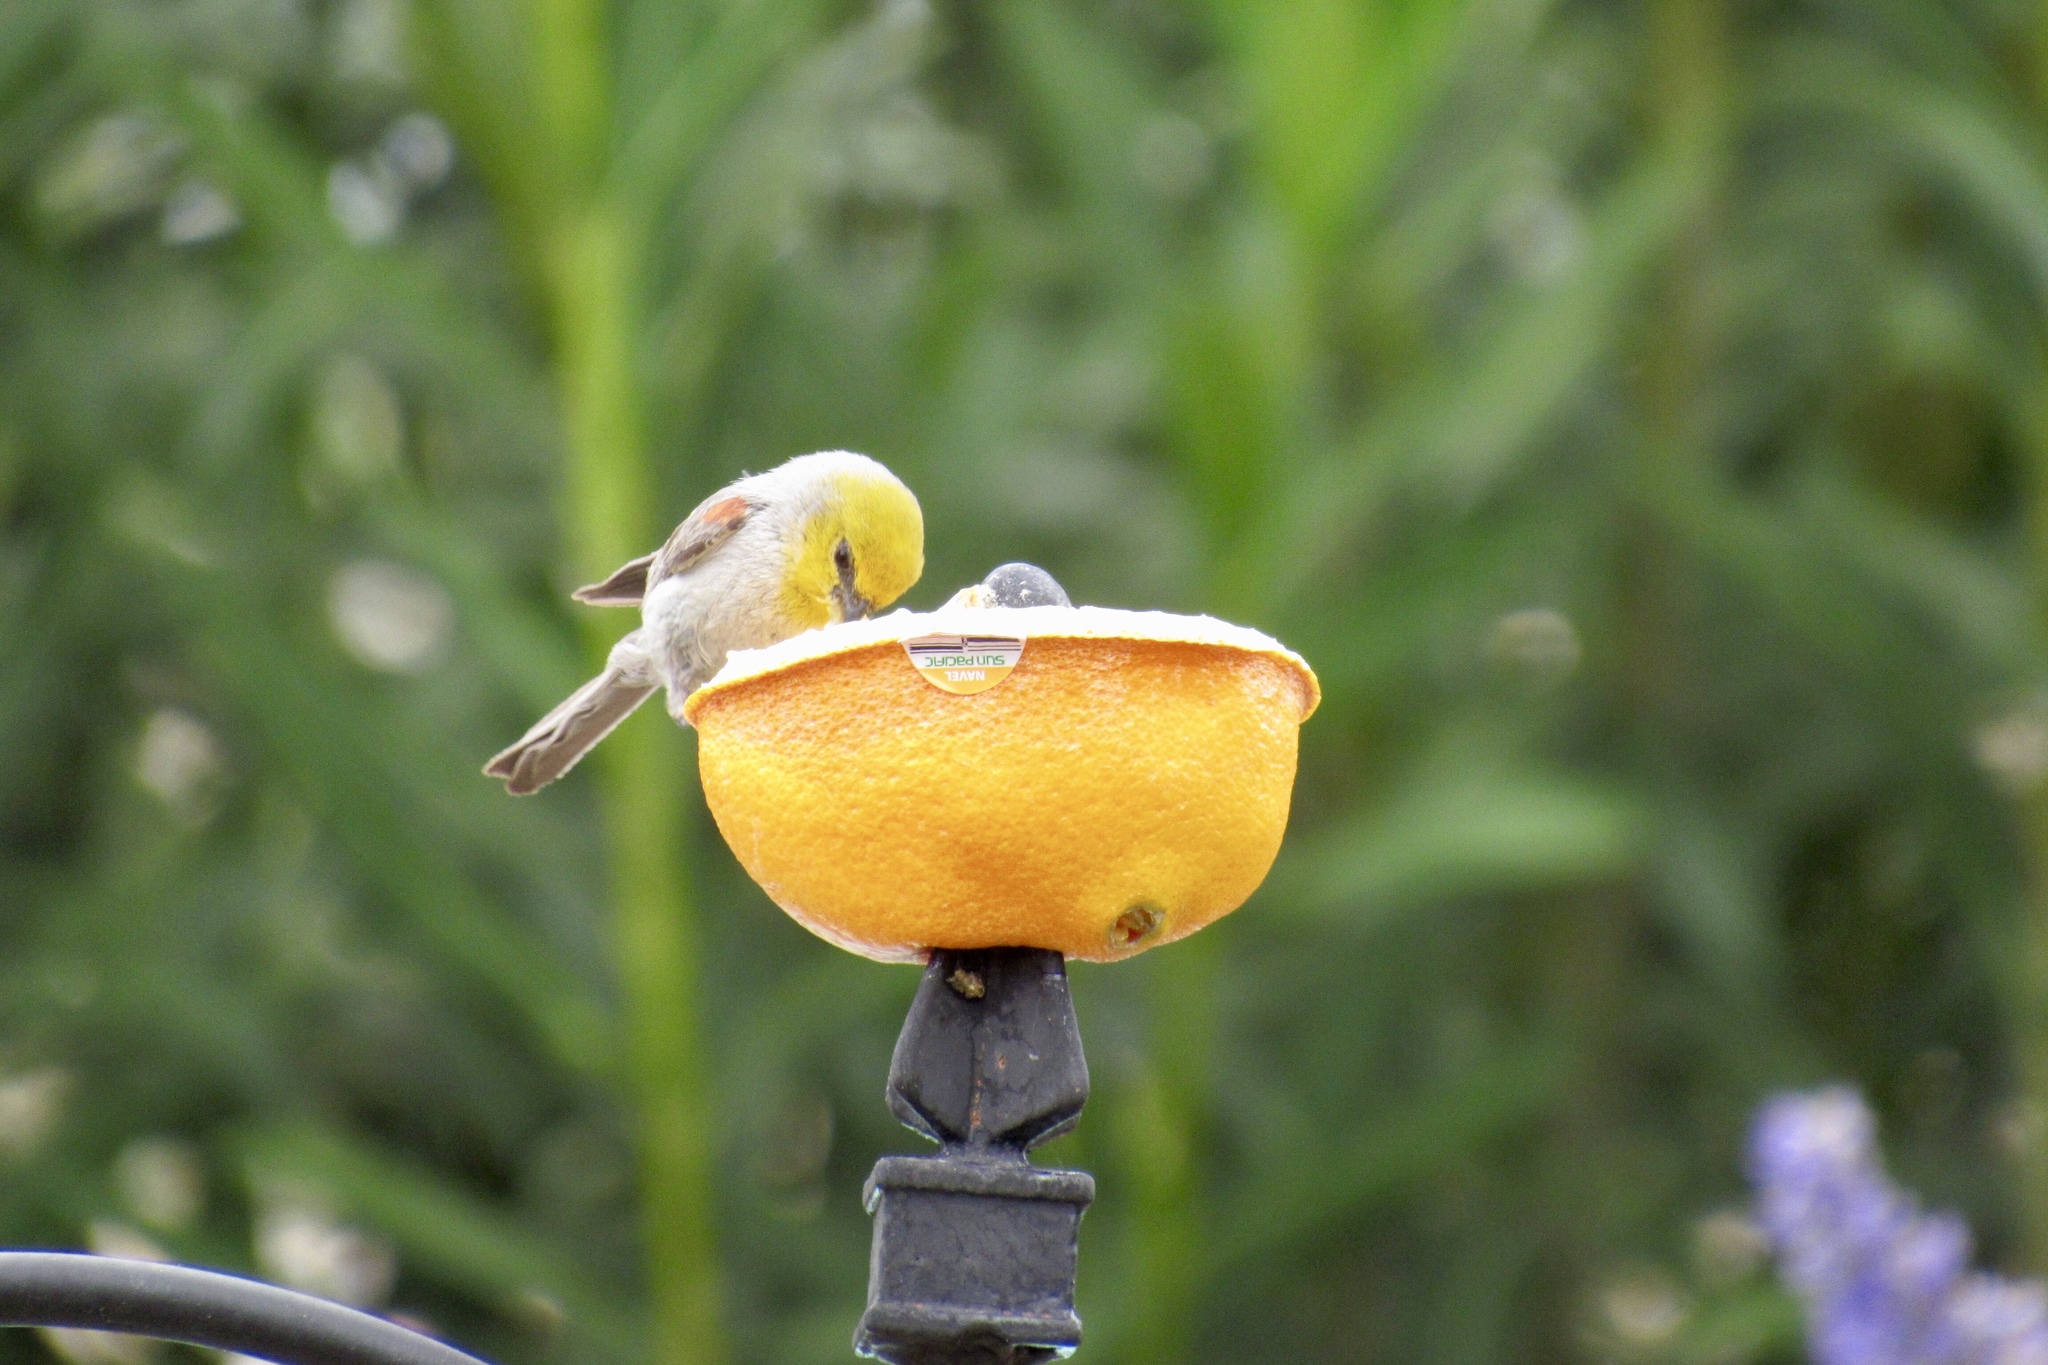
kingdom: Animalia
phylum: Chordata
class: Aves
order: Passeriformes
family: Remizidae
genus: Auriparus
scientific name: Auriparus flaviceps
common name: Verdin
